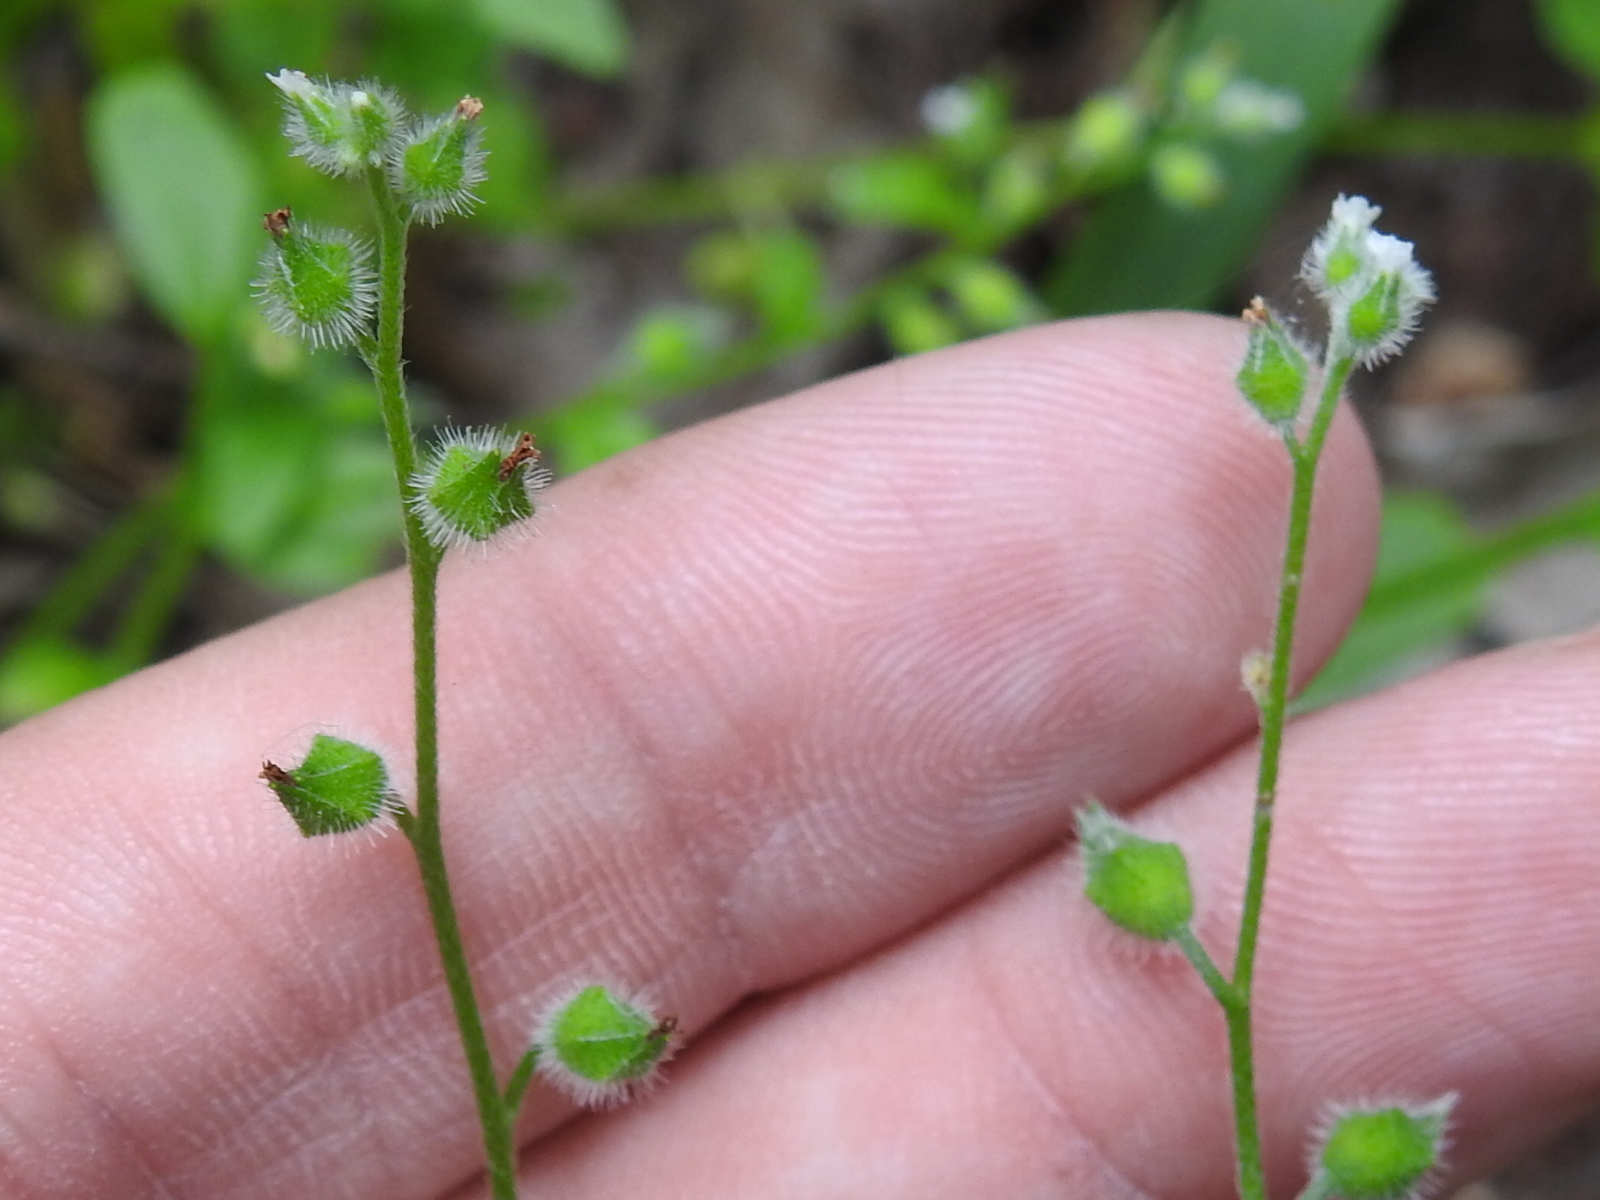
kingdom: Plantae
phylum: Tracheophyta
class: Magnoliopsida
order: Boraginales
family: Boraginaceae
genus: Myosotis
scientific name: Myosotis macrosperma
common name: Large-seed forget-me-not
